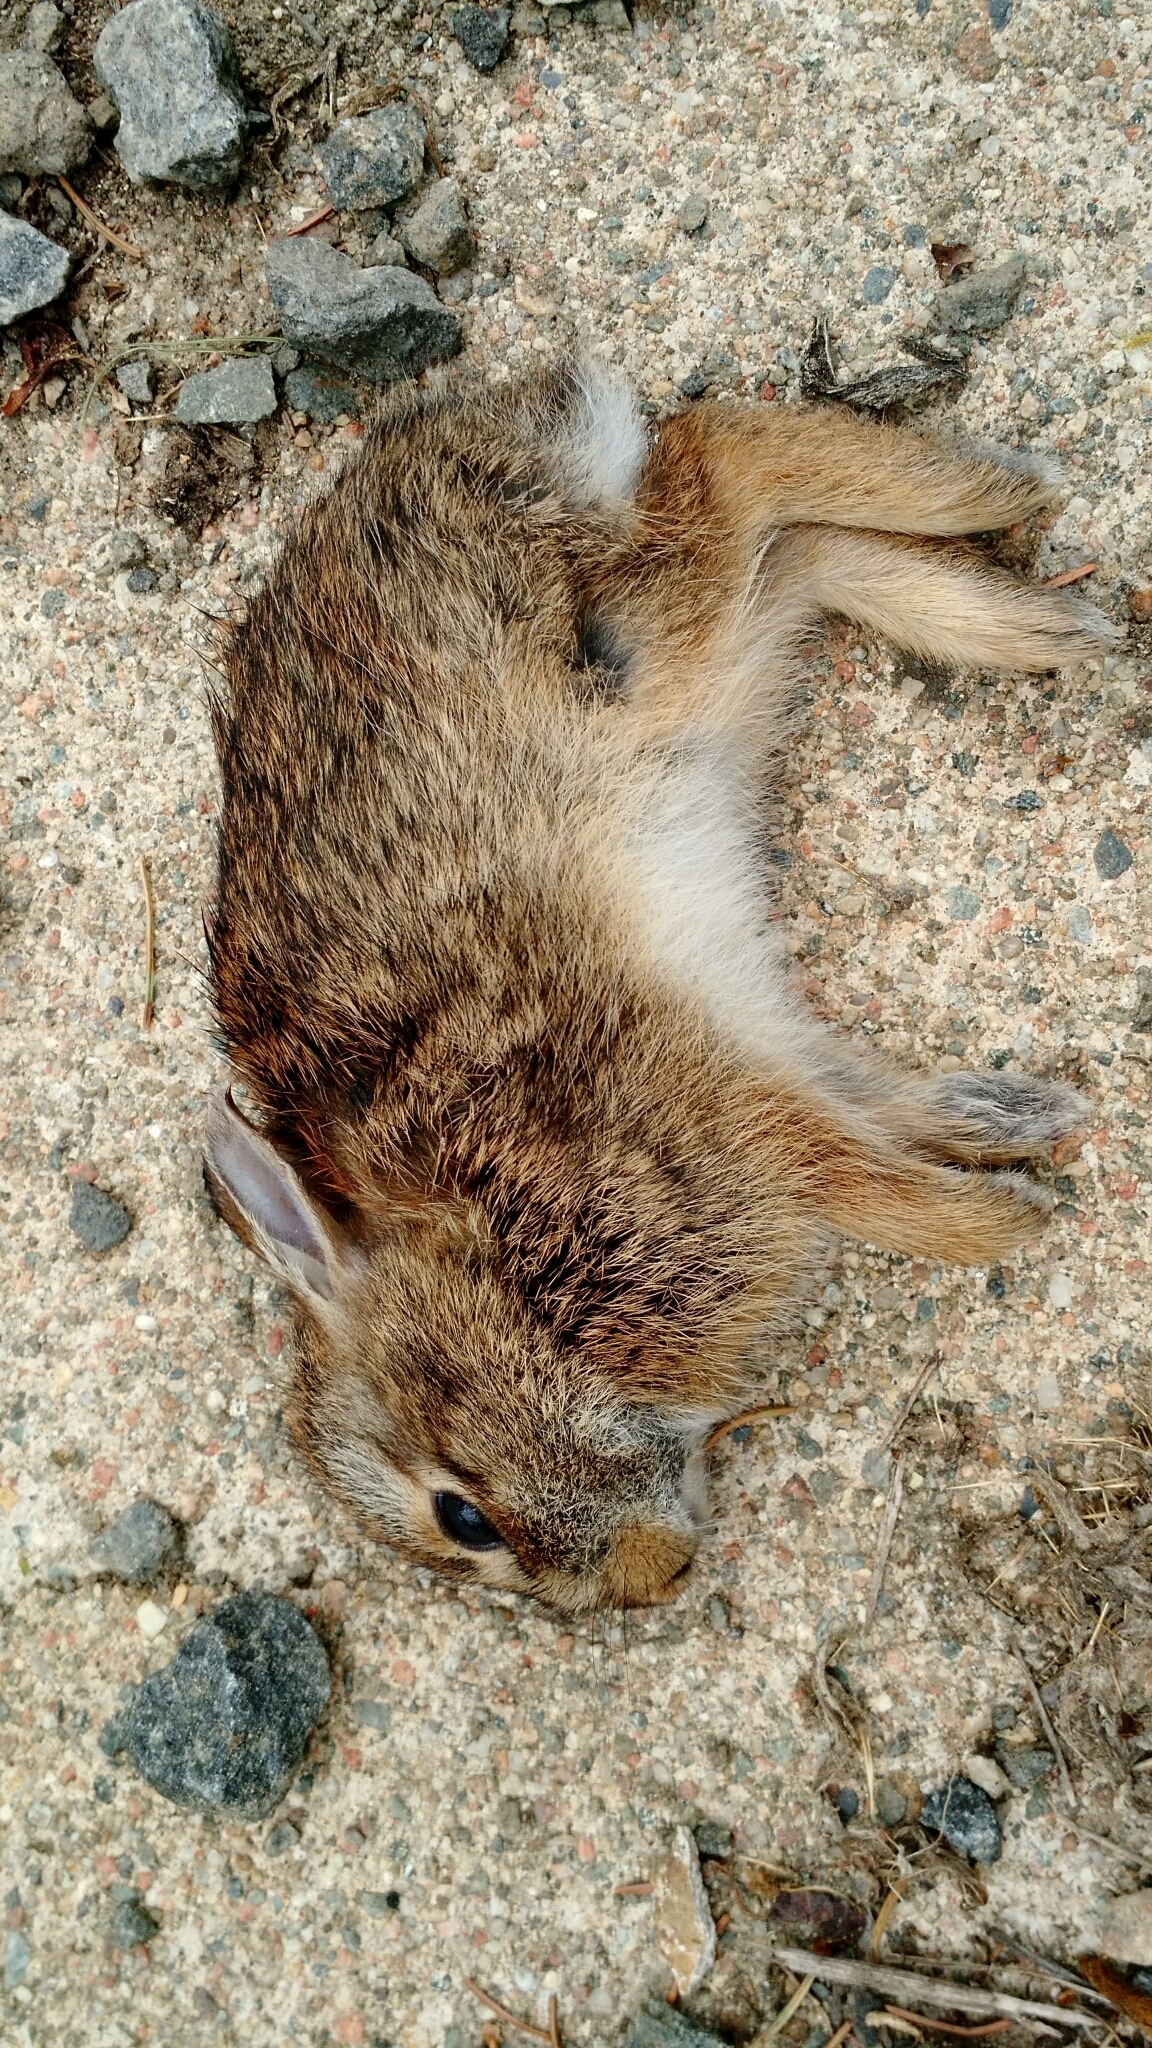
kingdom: Animalia
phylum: Chordata
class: Mammalia
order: Lagomorpha
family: Leporidae
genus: Sylvilagus
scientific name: Sylvilagus floridanus
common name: Eastern cottontail
